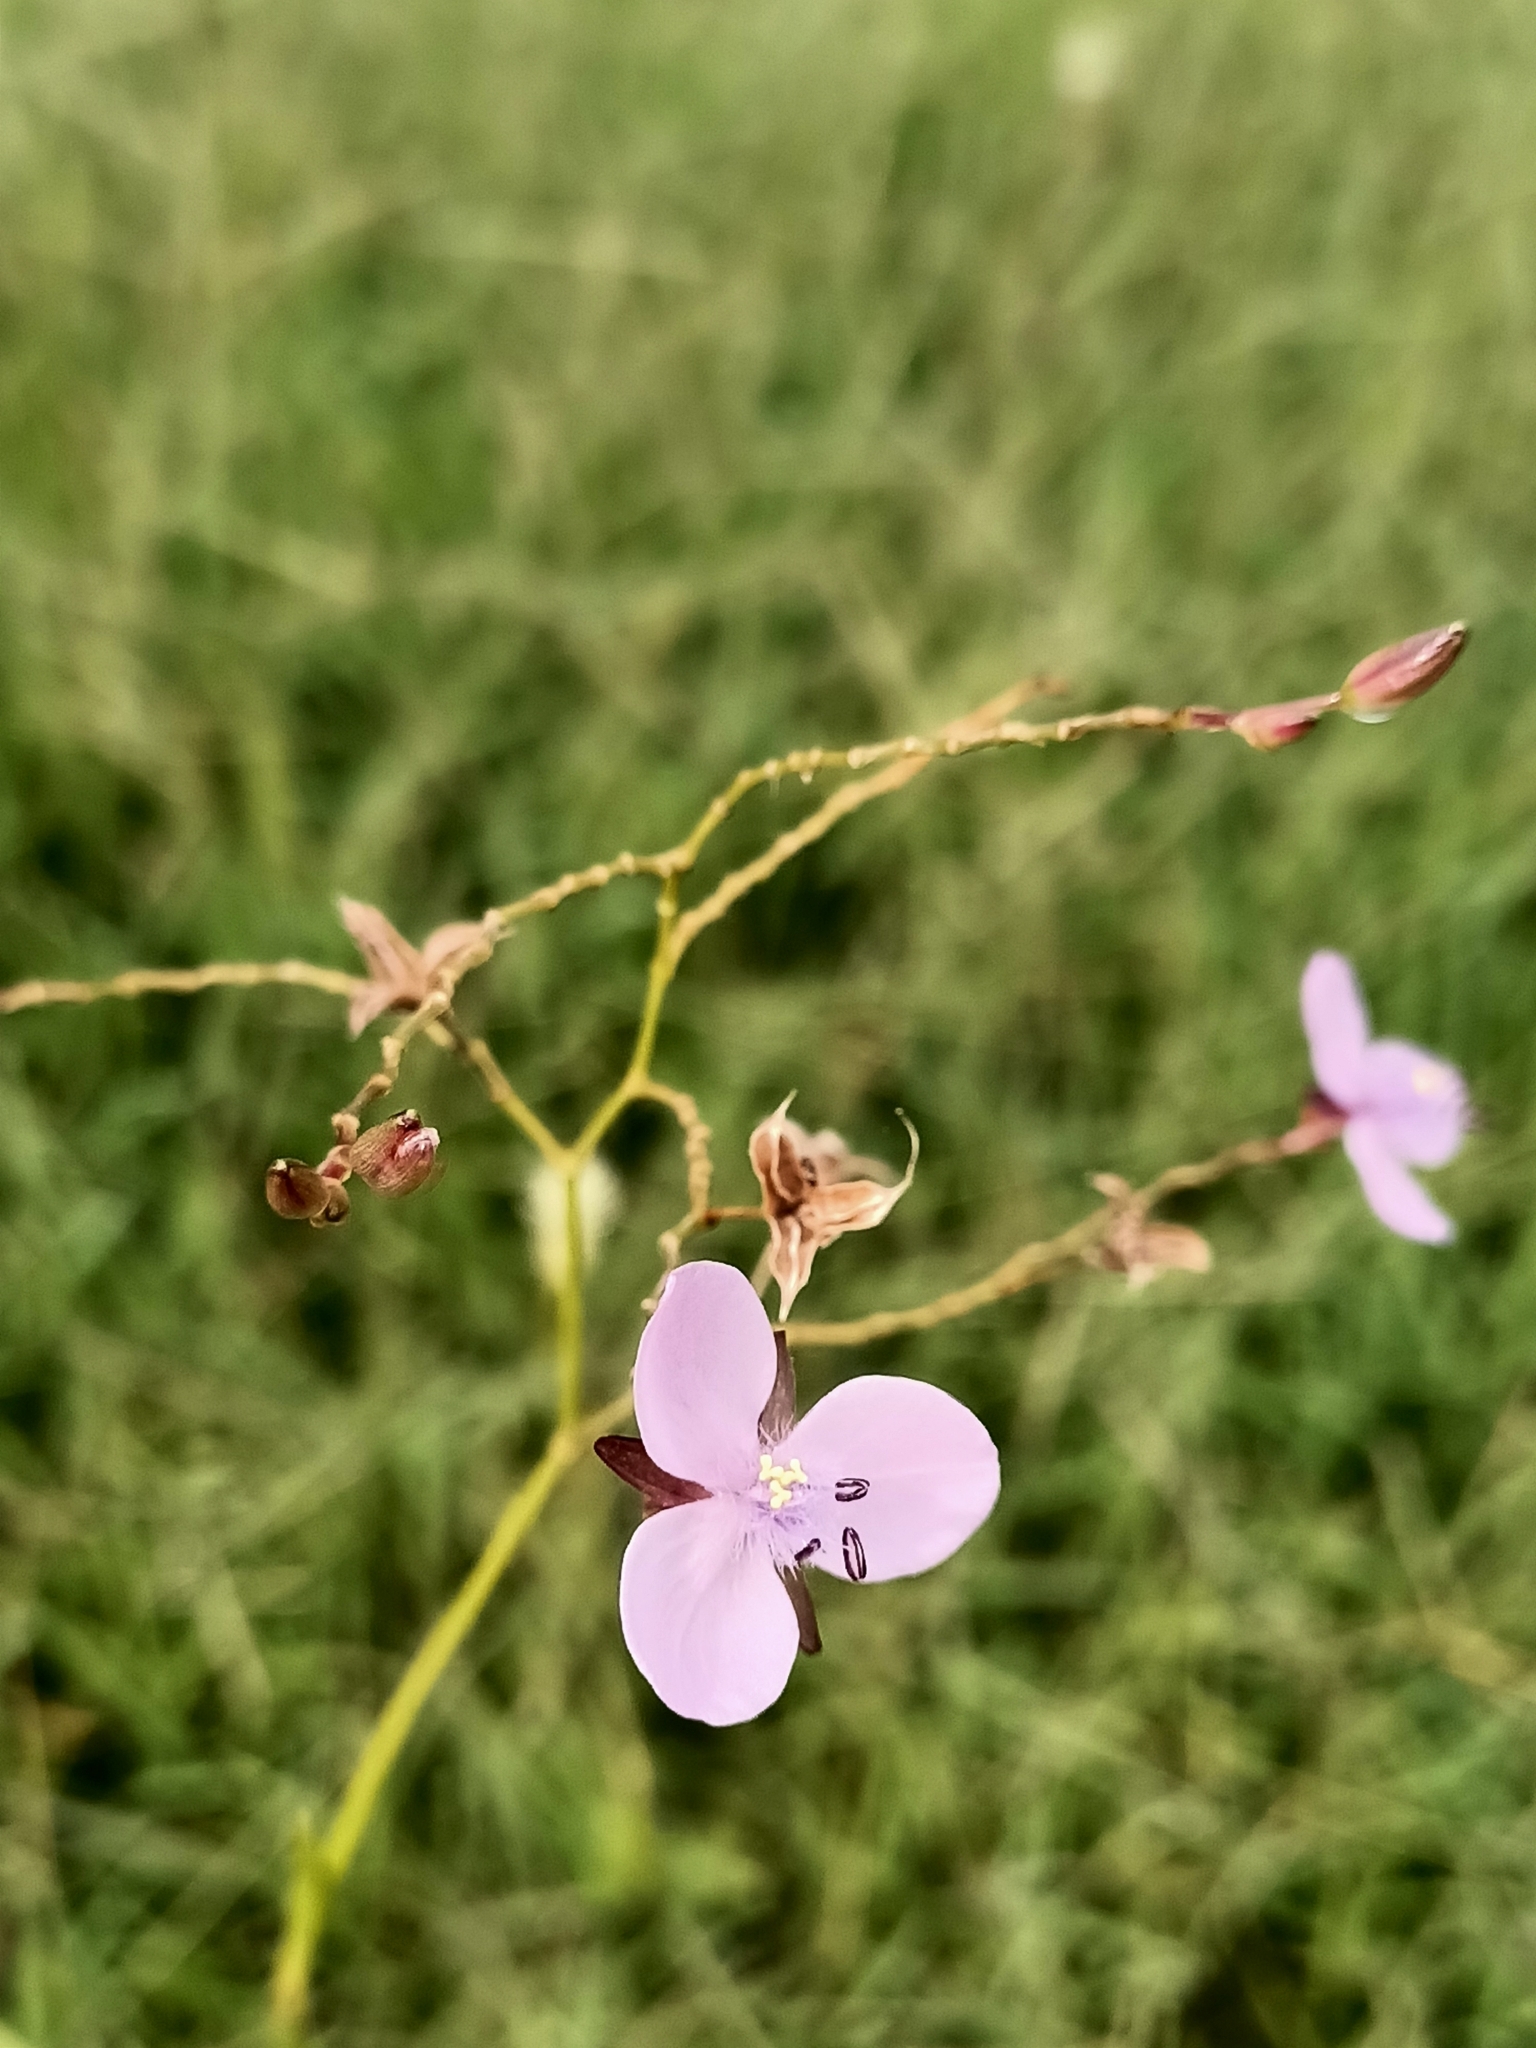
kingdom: Plantae
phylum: Tracheophyta
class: Liliopsida
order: Commelinales
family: Commelinaceae
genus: Murdannia
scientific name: Murdannia graminea
